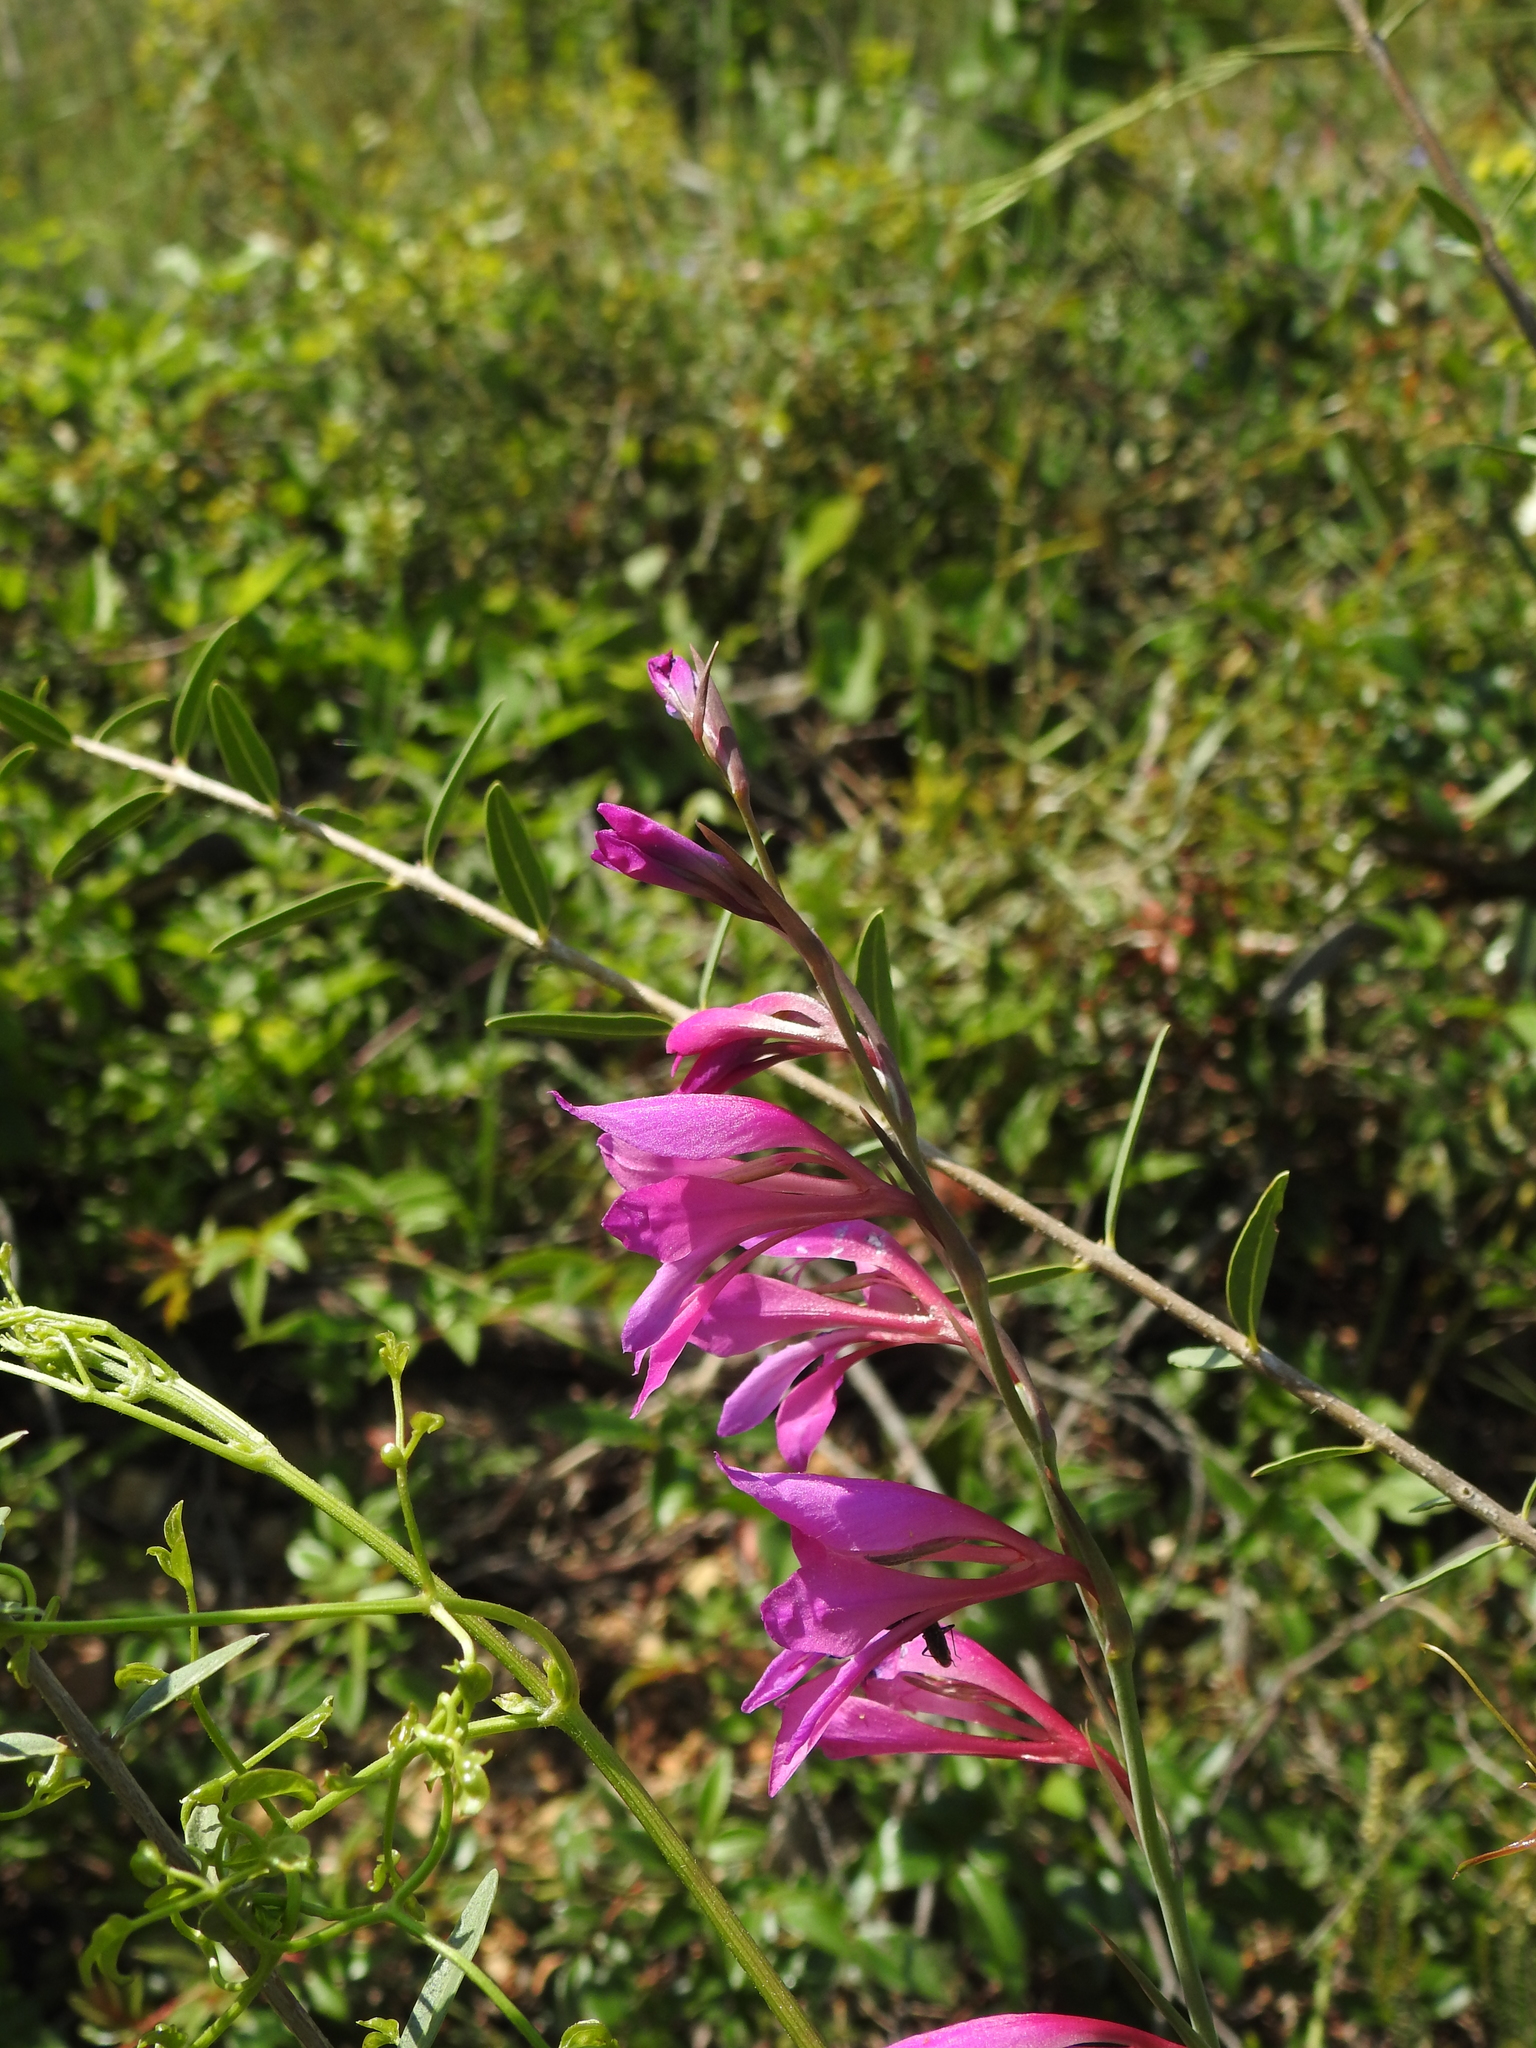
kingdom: Plantae
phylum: Tracheophyta
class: Liliopsida
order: Asparagales
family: Iridaceae
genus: Gladiolus
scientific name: Gladiolus dubius
